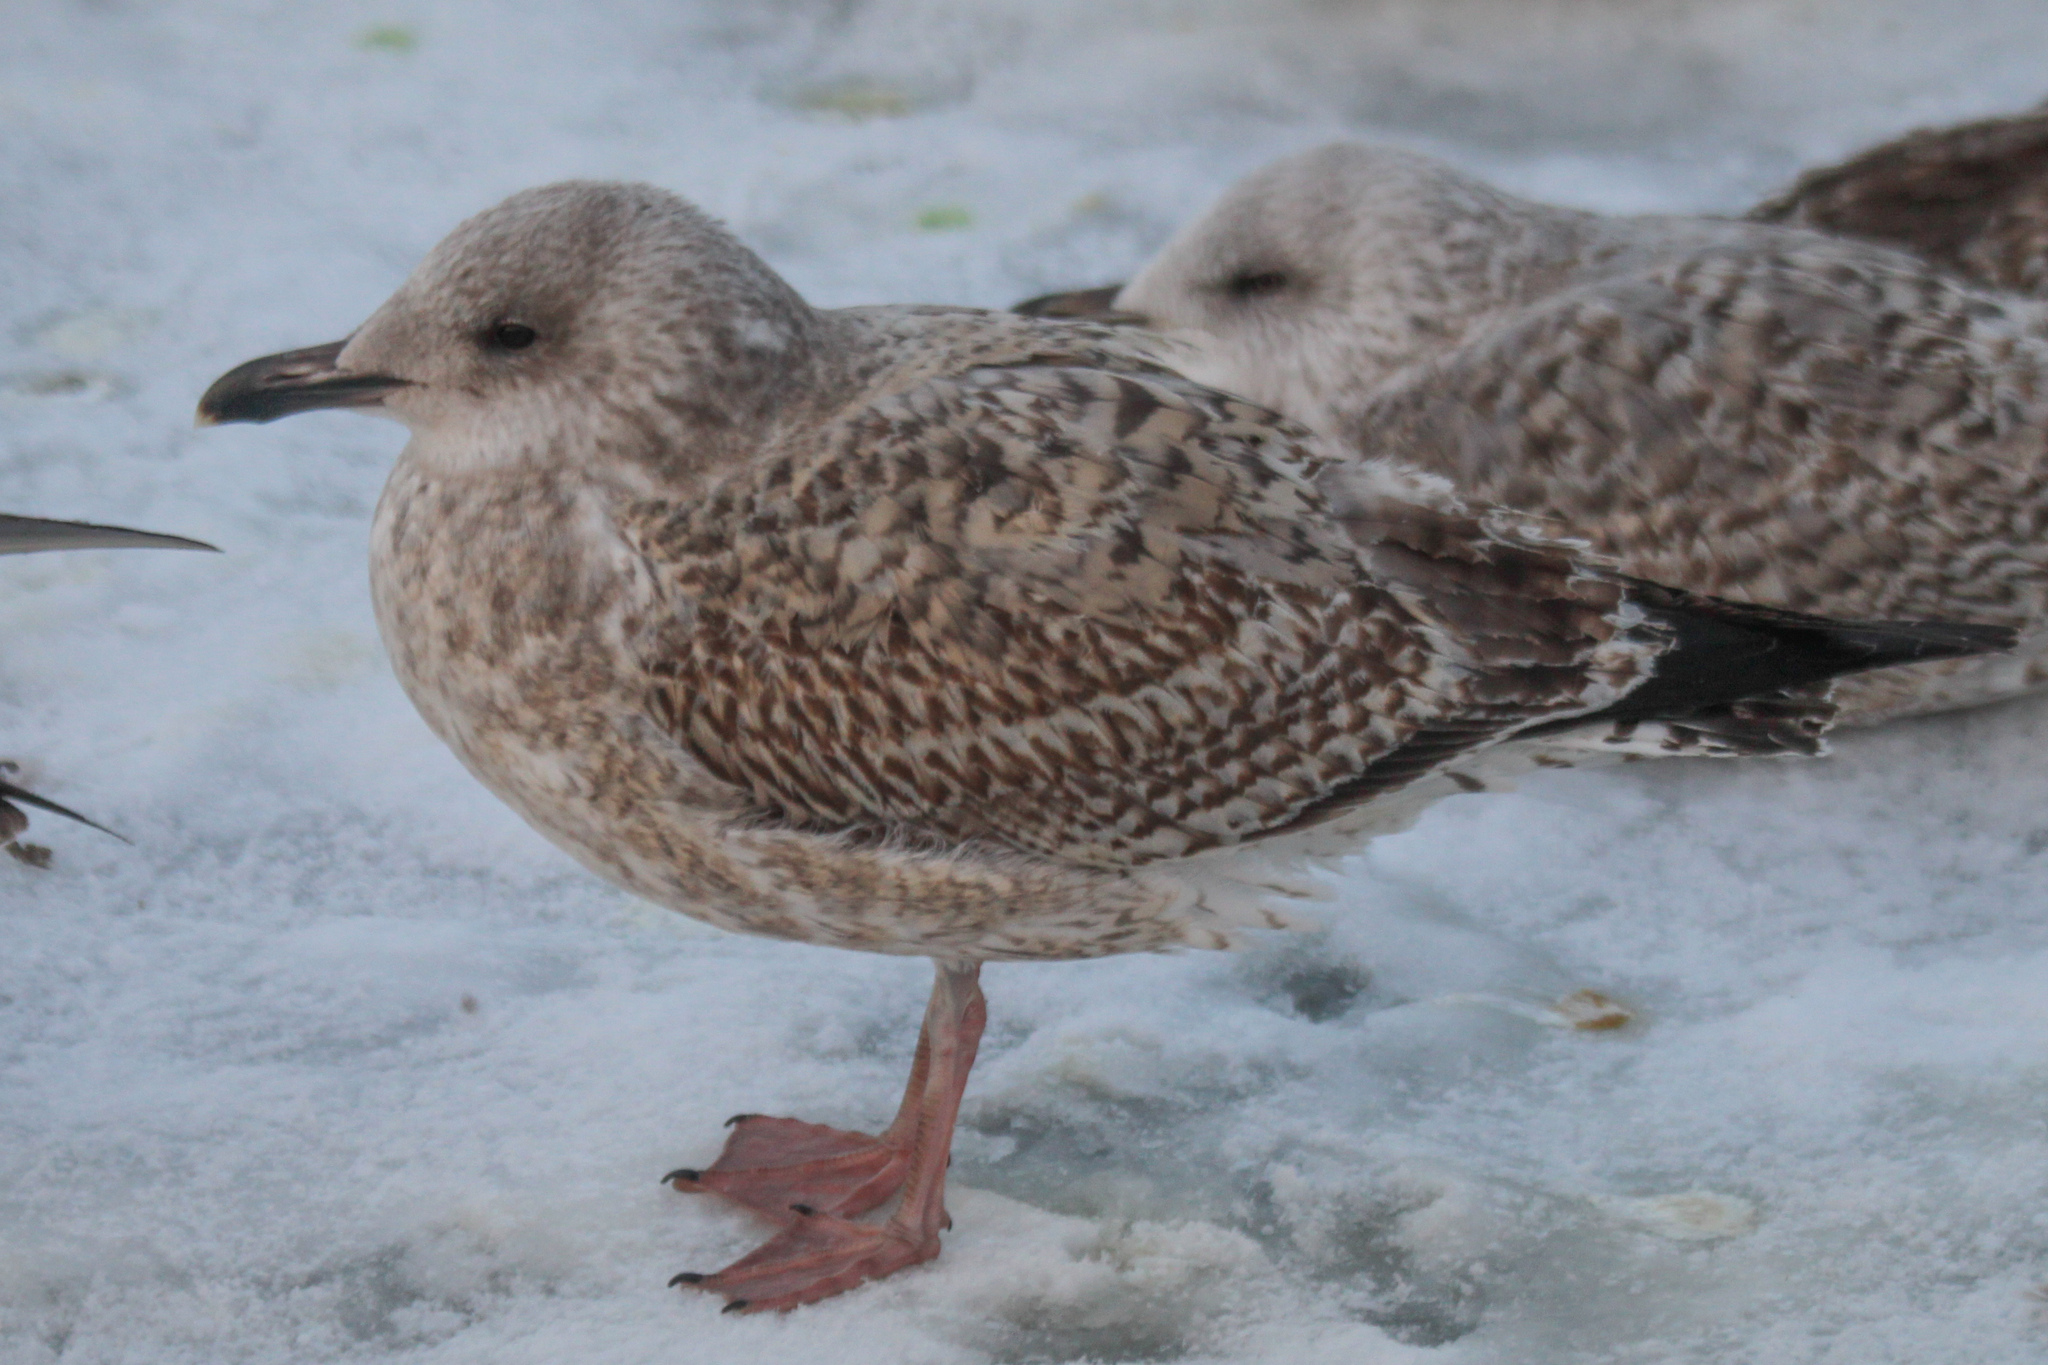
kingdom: Animalia
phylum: Chordata
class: Aves
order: Charadriiformes
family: Laridae
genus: Larus
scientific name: Larus argentatus
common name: Herring gull
